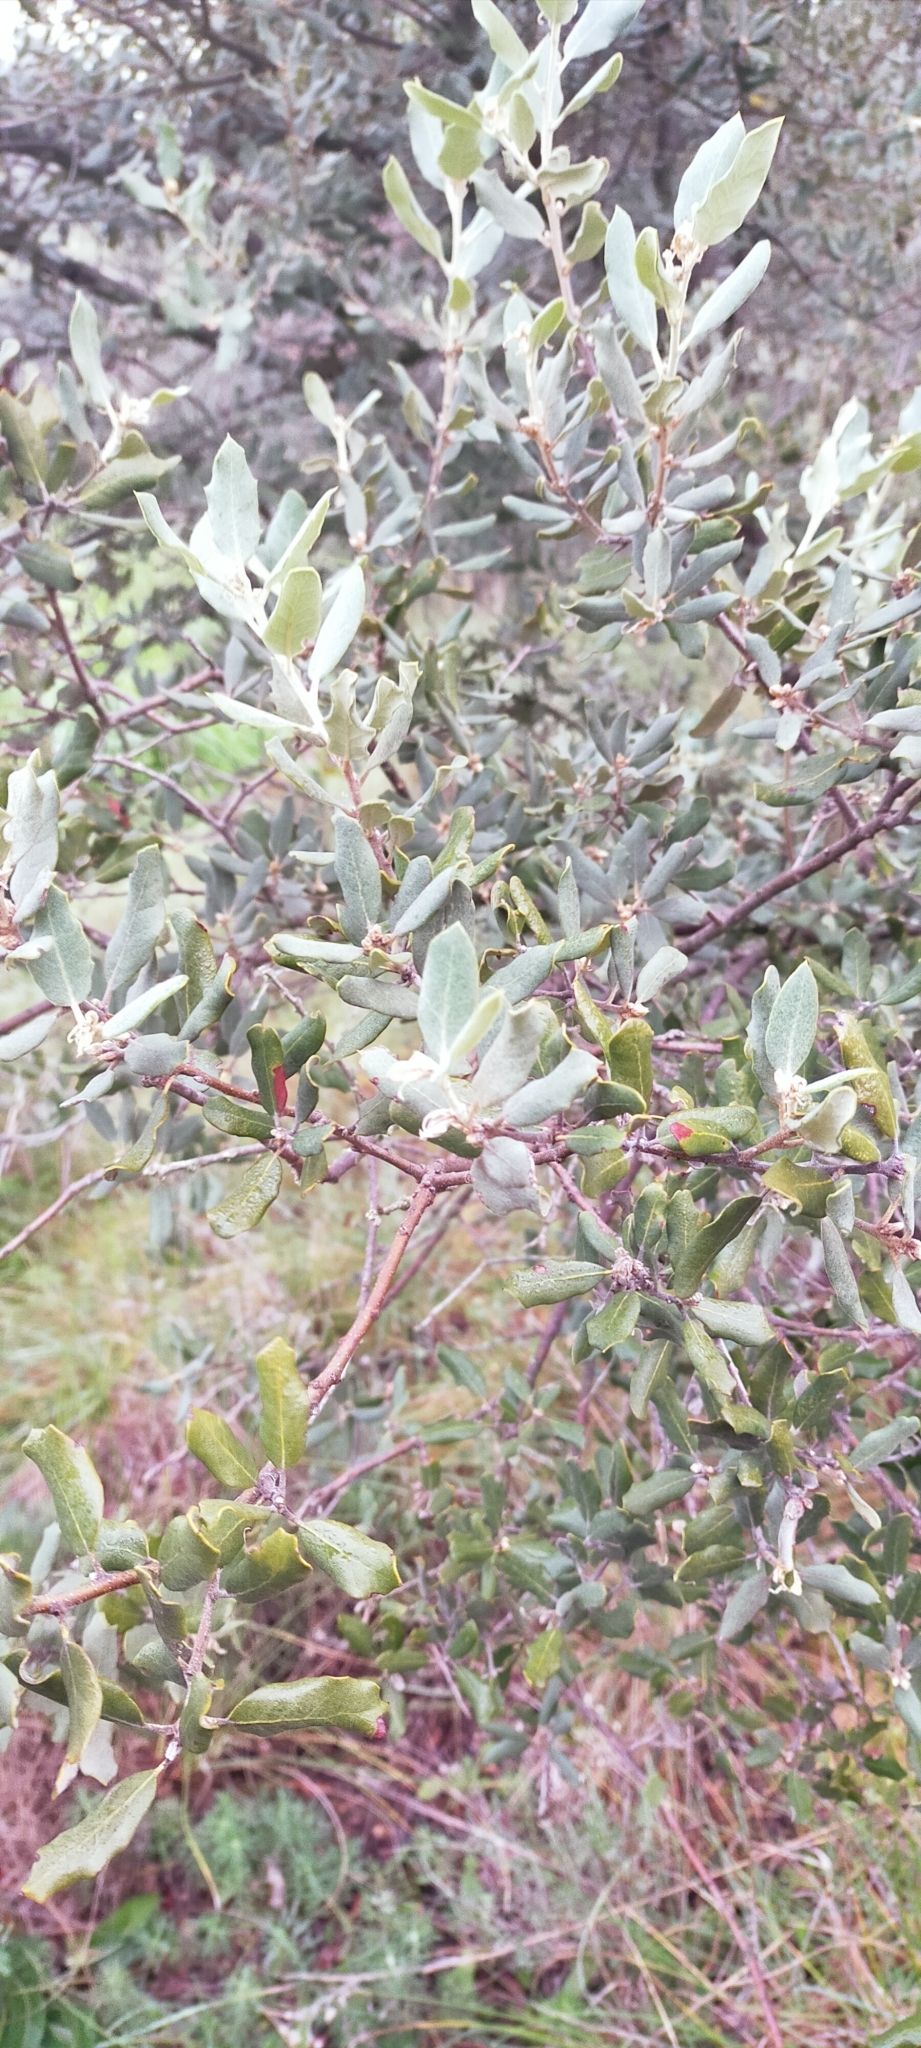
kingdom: Plantae
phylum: Tracheophyta
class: Magnoliopsida
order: Fagales
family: Fagaceae
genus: Quercus
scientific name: Quercus rotundifolia
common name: Holm oak
